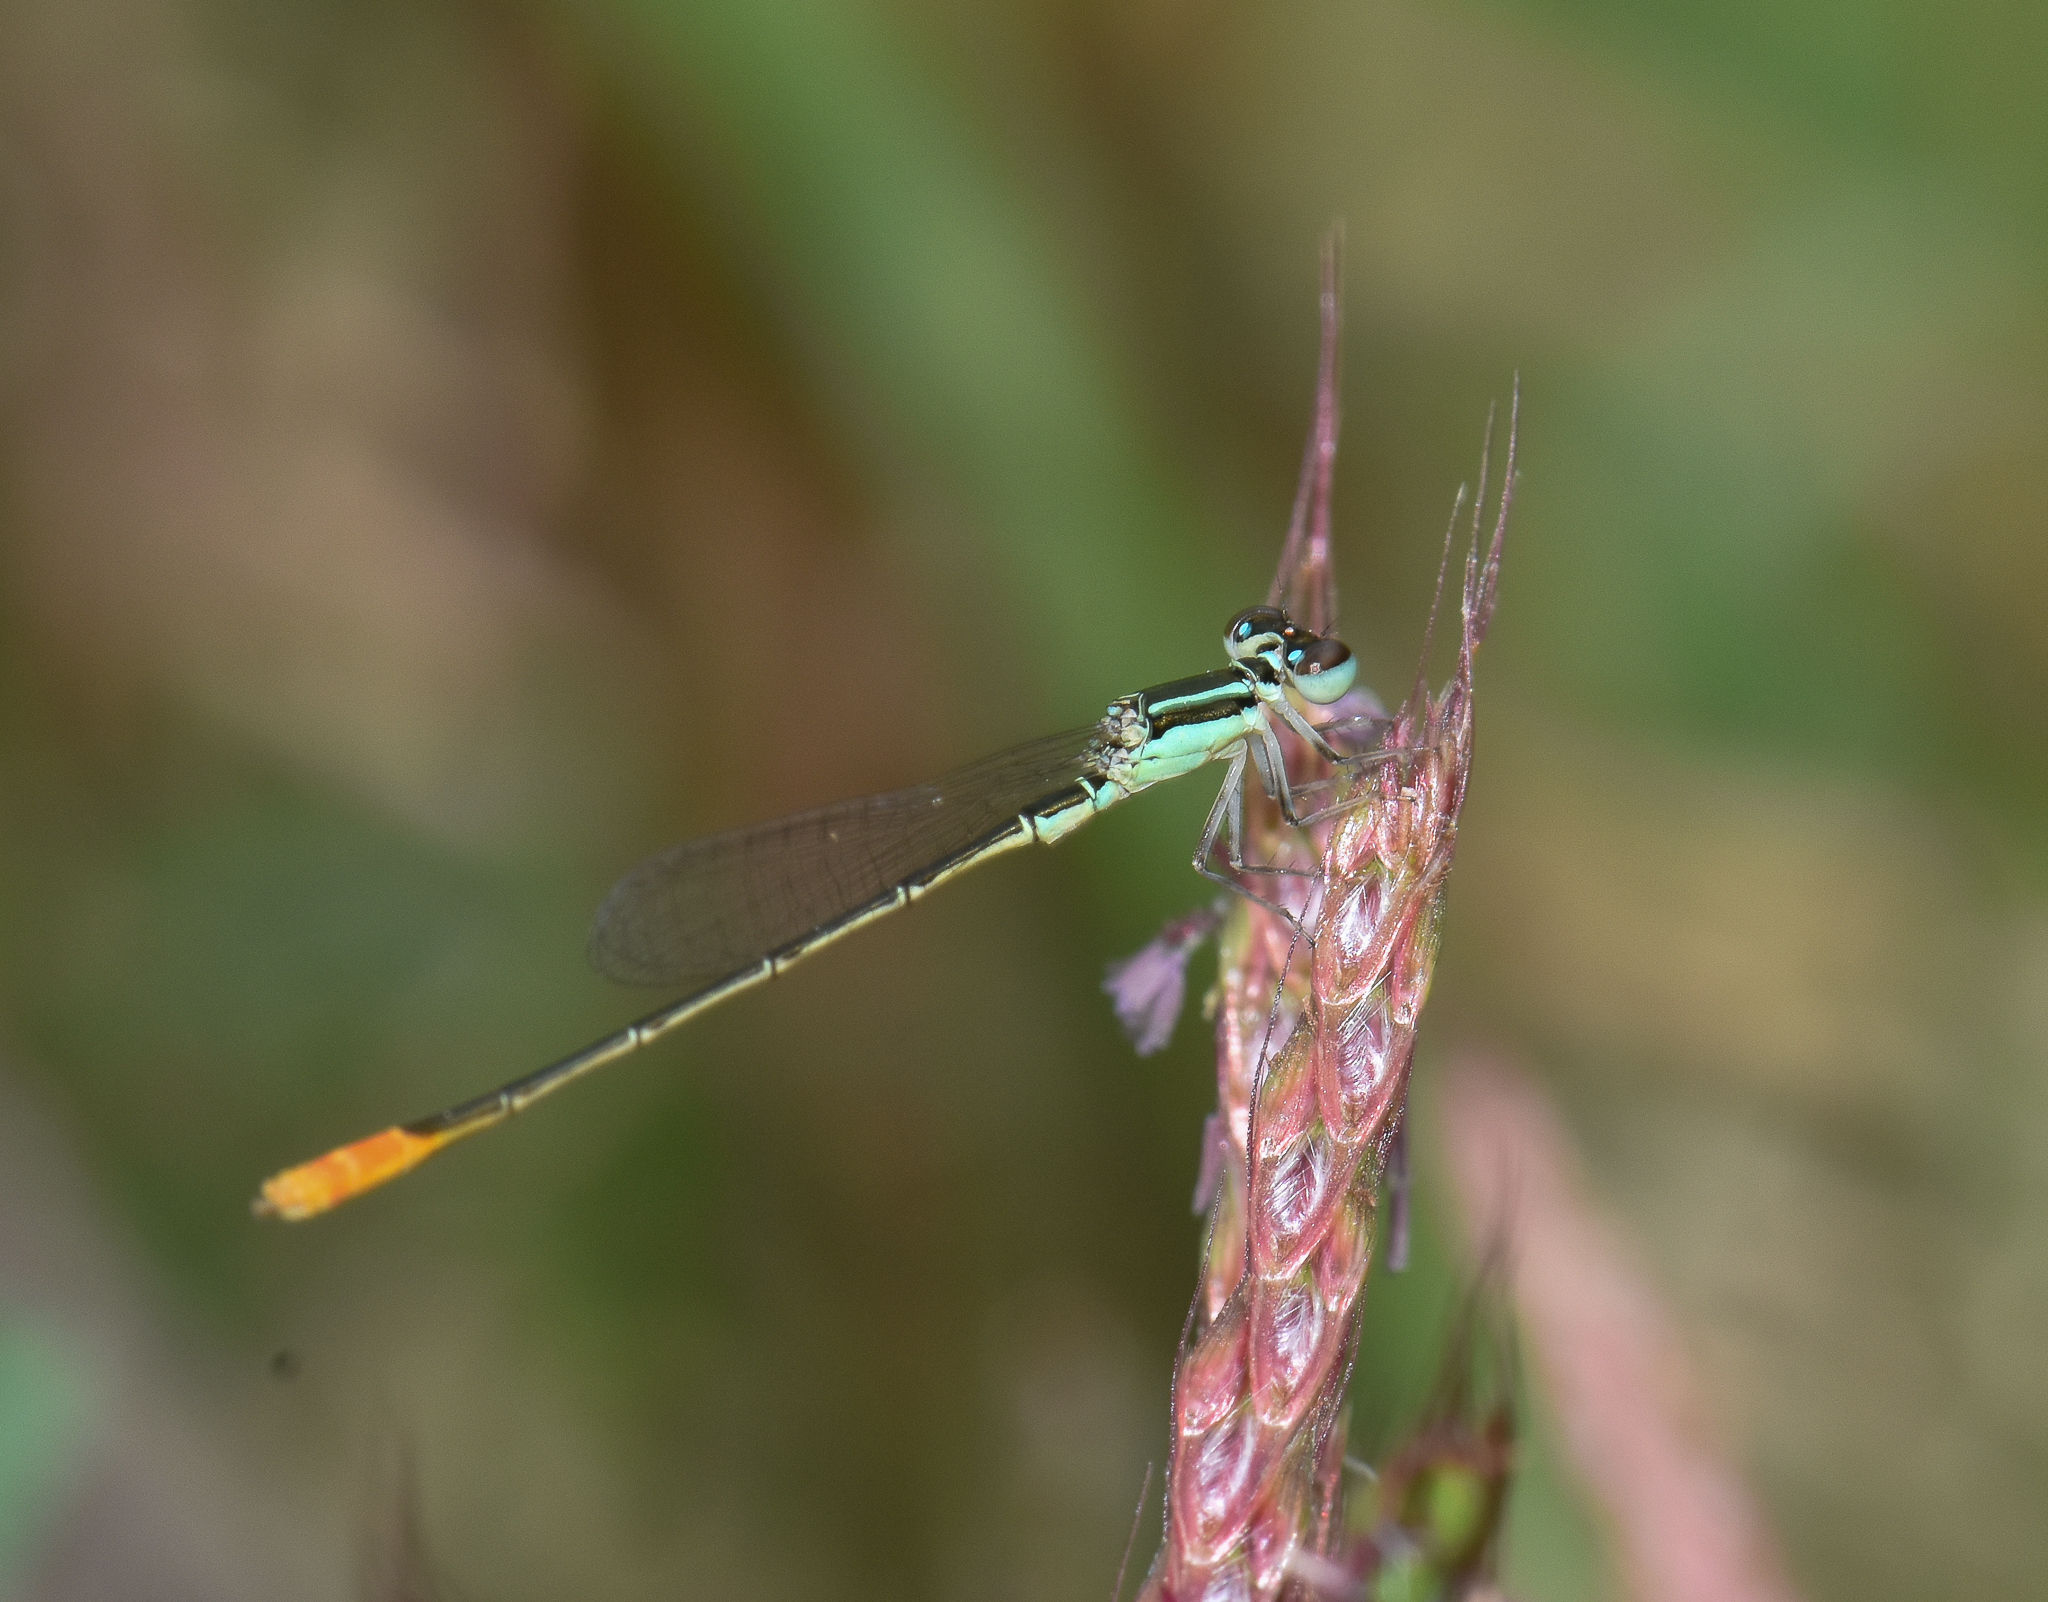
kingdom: Animalia
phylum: Arthropoda
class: Insecta
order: Odonata
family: Coenagrionidae
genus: Agriocnemis
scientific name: Agriocnemis femina
